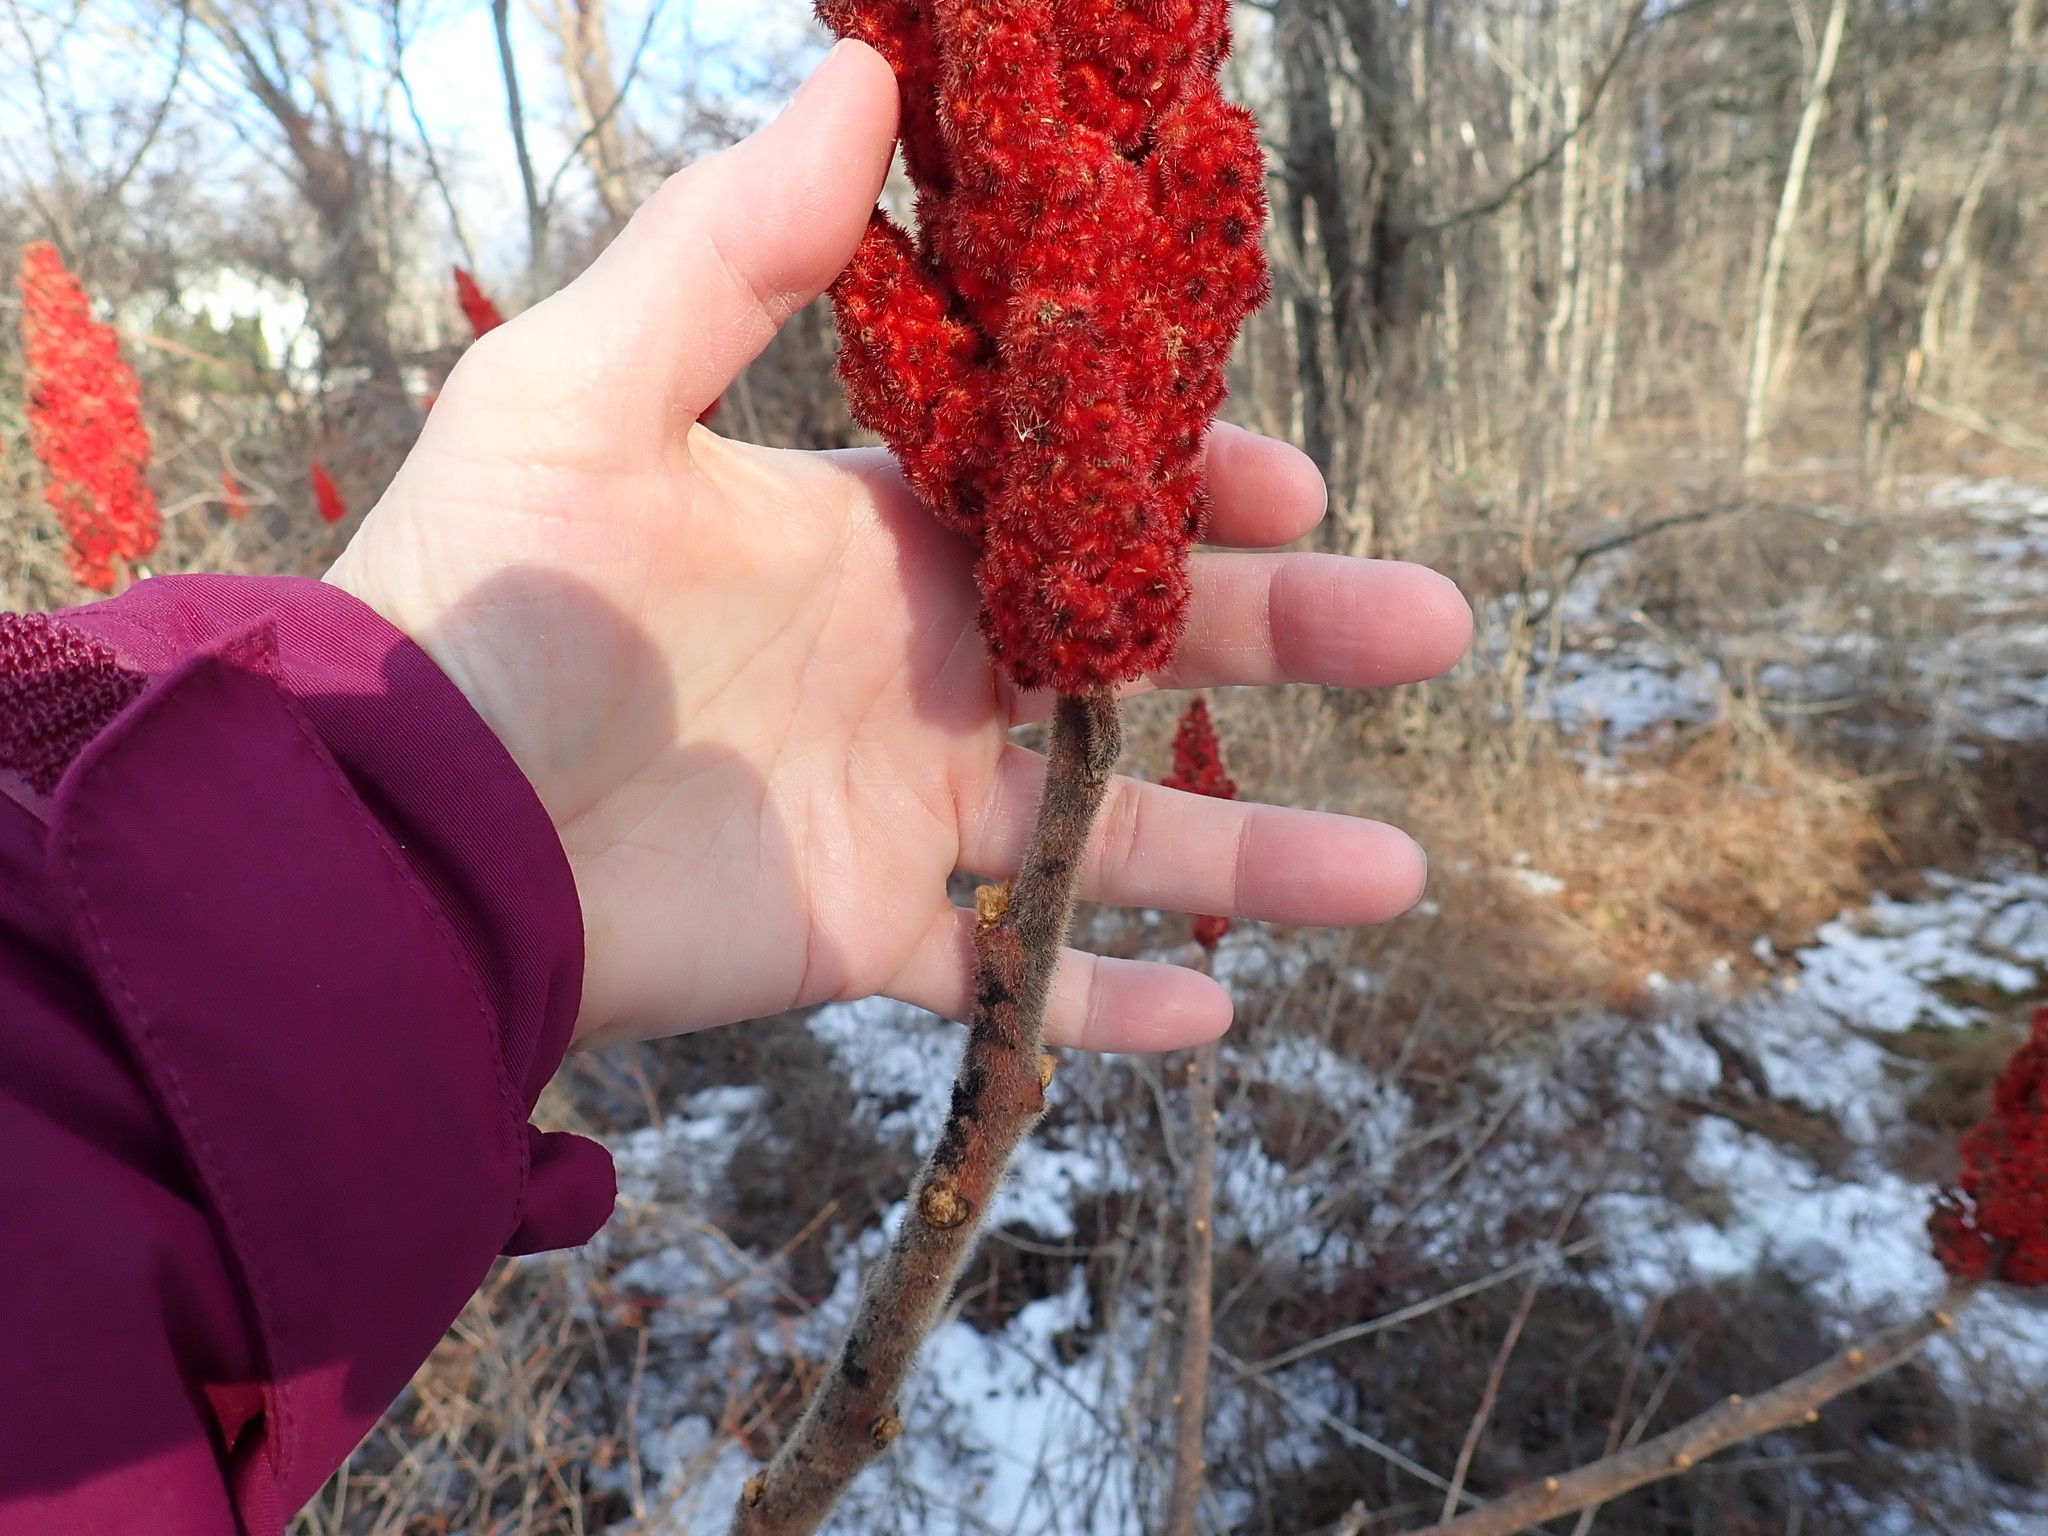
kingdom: Plantae
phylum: Tracheophyta
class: Magnoliopsida
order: Sapindales
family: Anacardiaceae
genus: Rhus
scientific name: Rhus typhina
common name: Staghorn sumac
